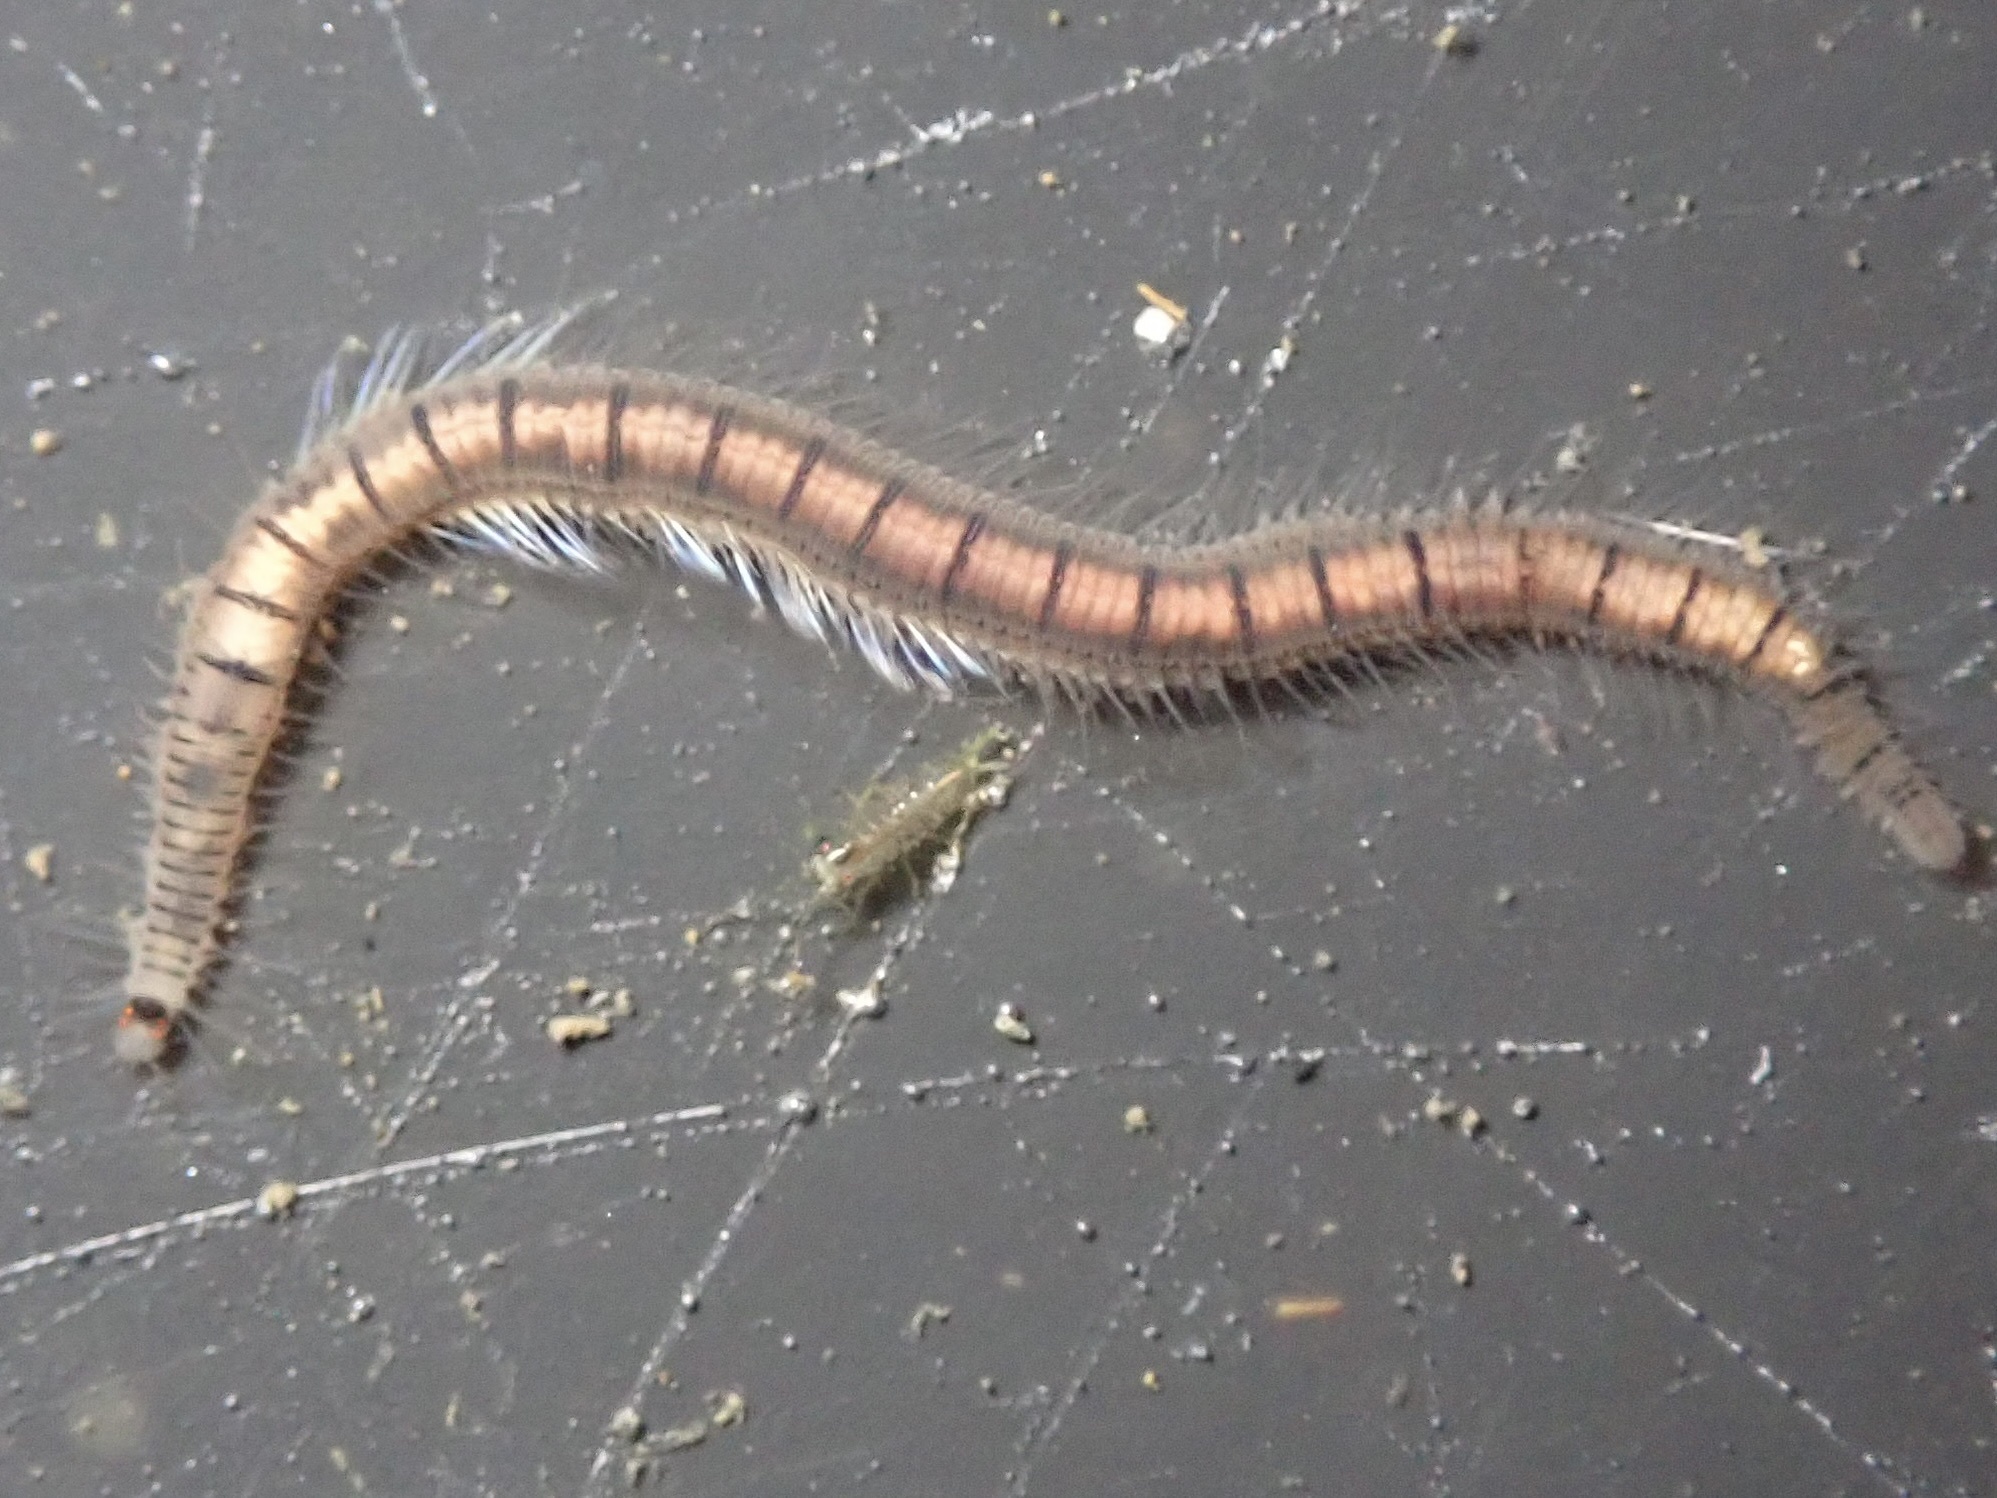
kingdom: Animalia
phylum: Annelida
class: Polychaeta
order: Phyllodocida
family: Syllidae
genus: Odontosyllis
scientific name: Odontosyllis phosphorea
